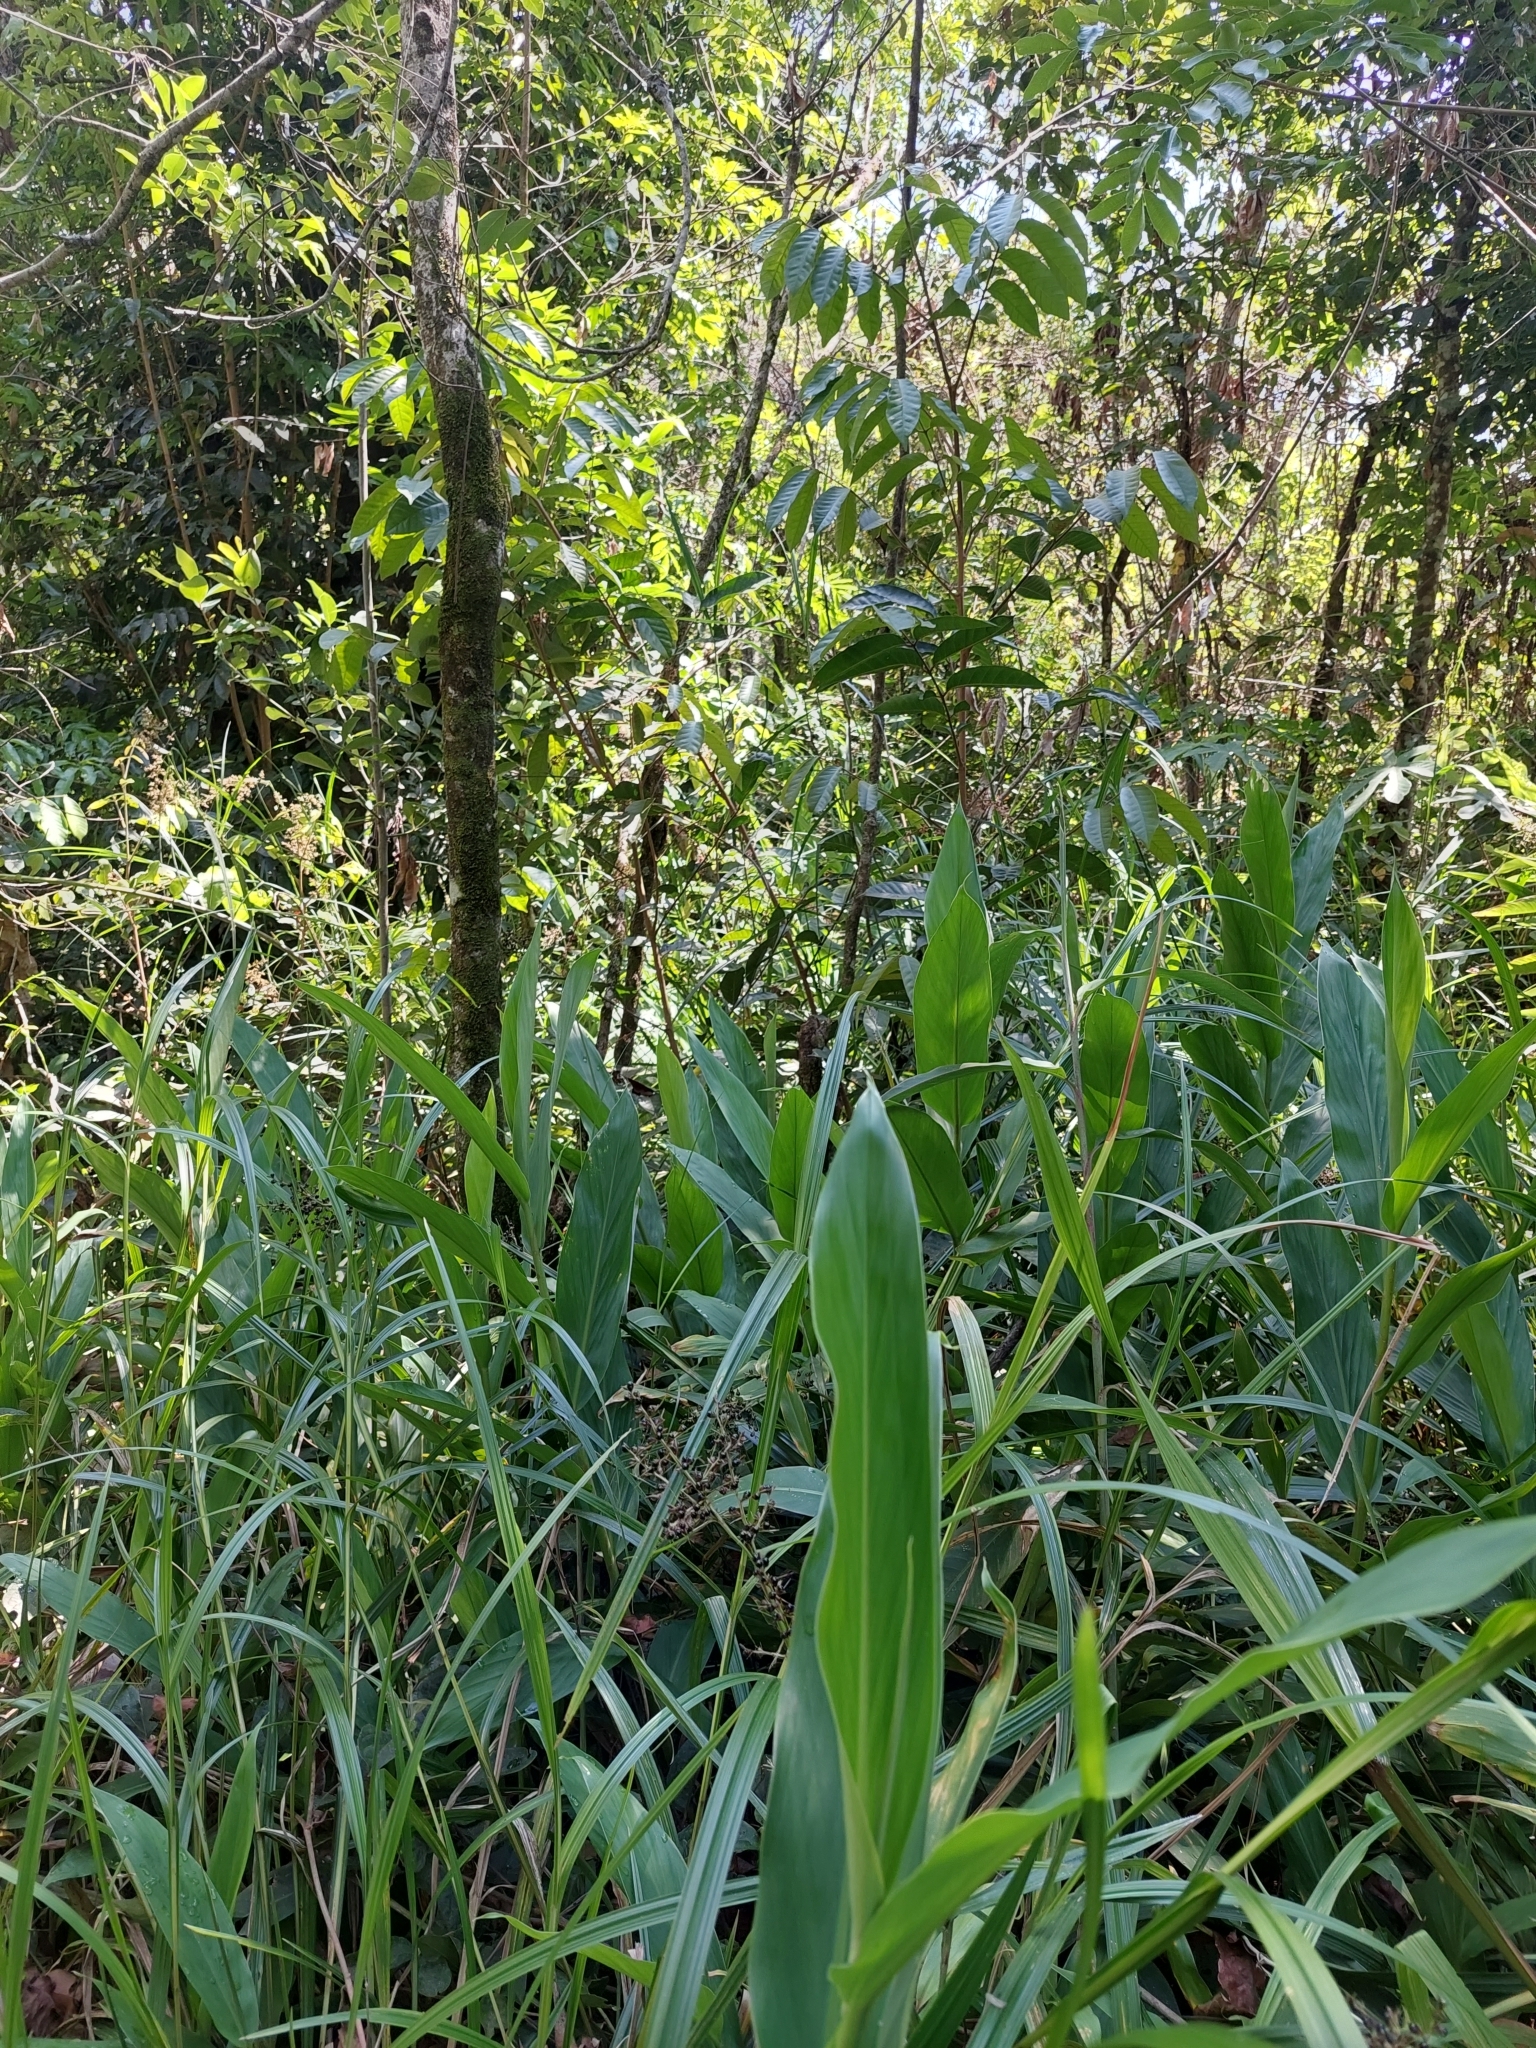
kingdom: Plantae
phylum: Tracheophyta
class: Liliopsida
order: Zingiberales
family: Zingiberaceae
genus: Hedychium
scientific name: Hedychium coronarium
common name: White garland-lily
